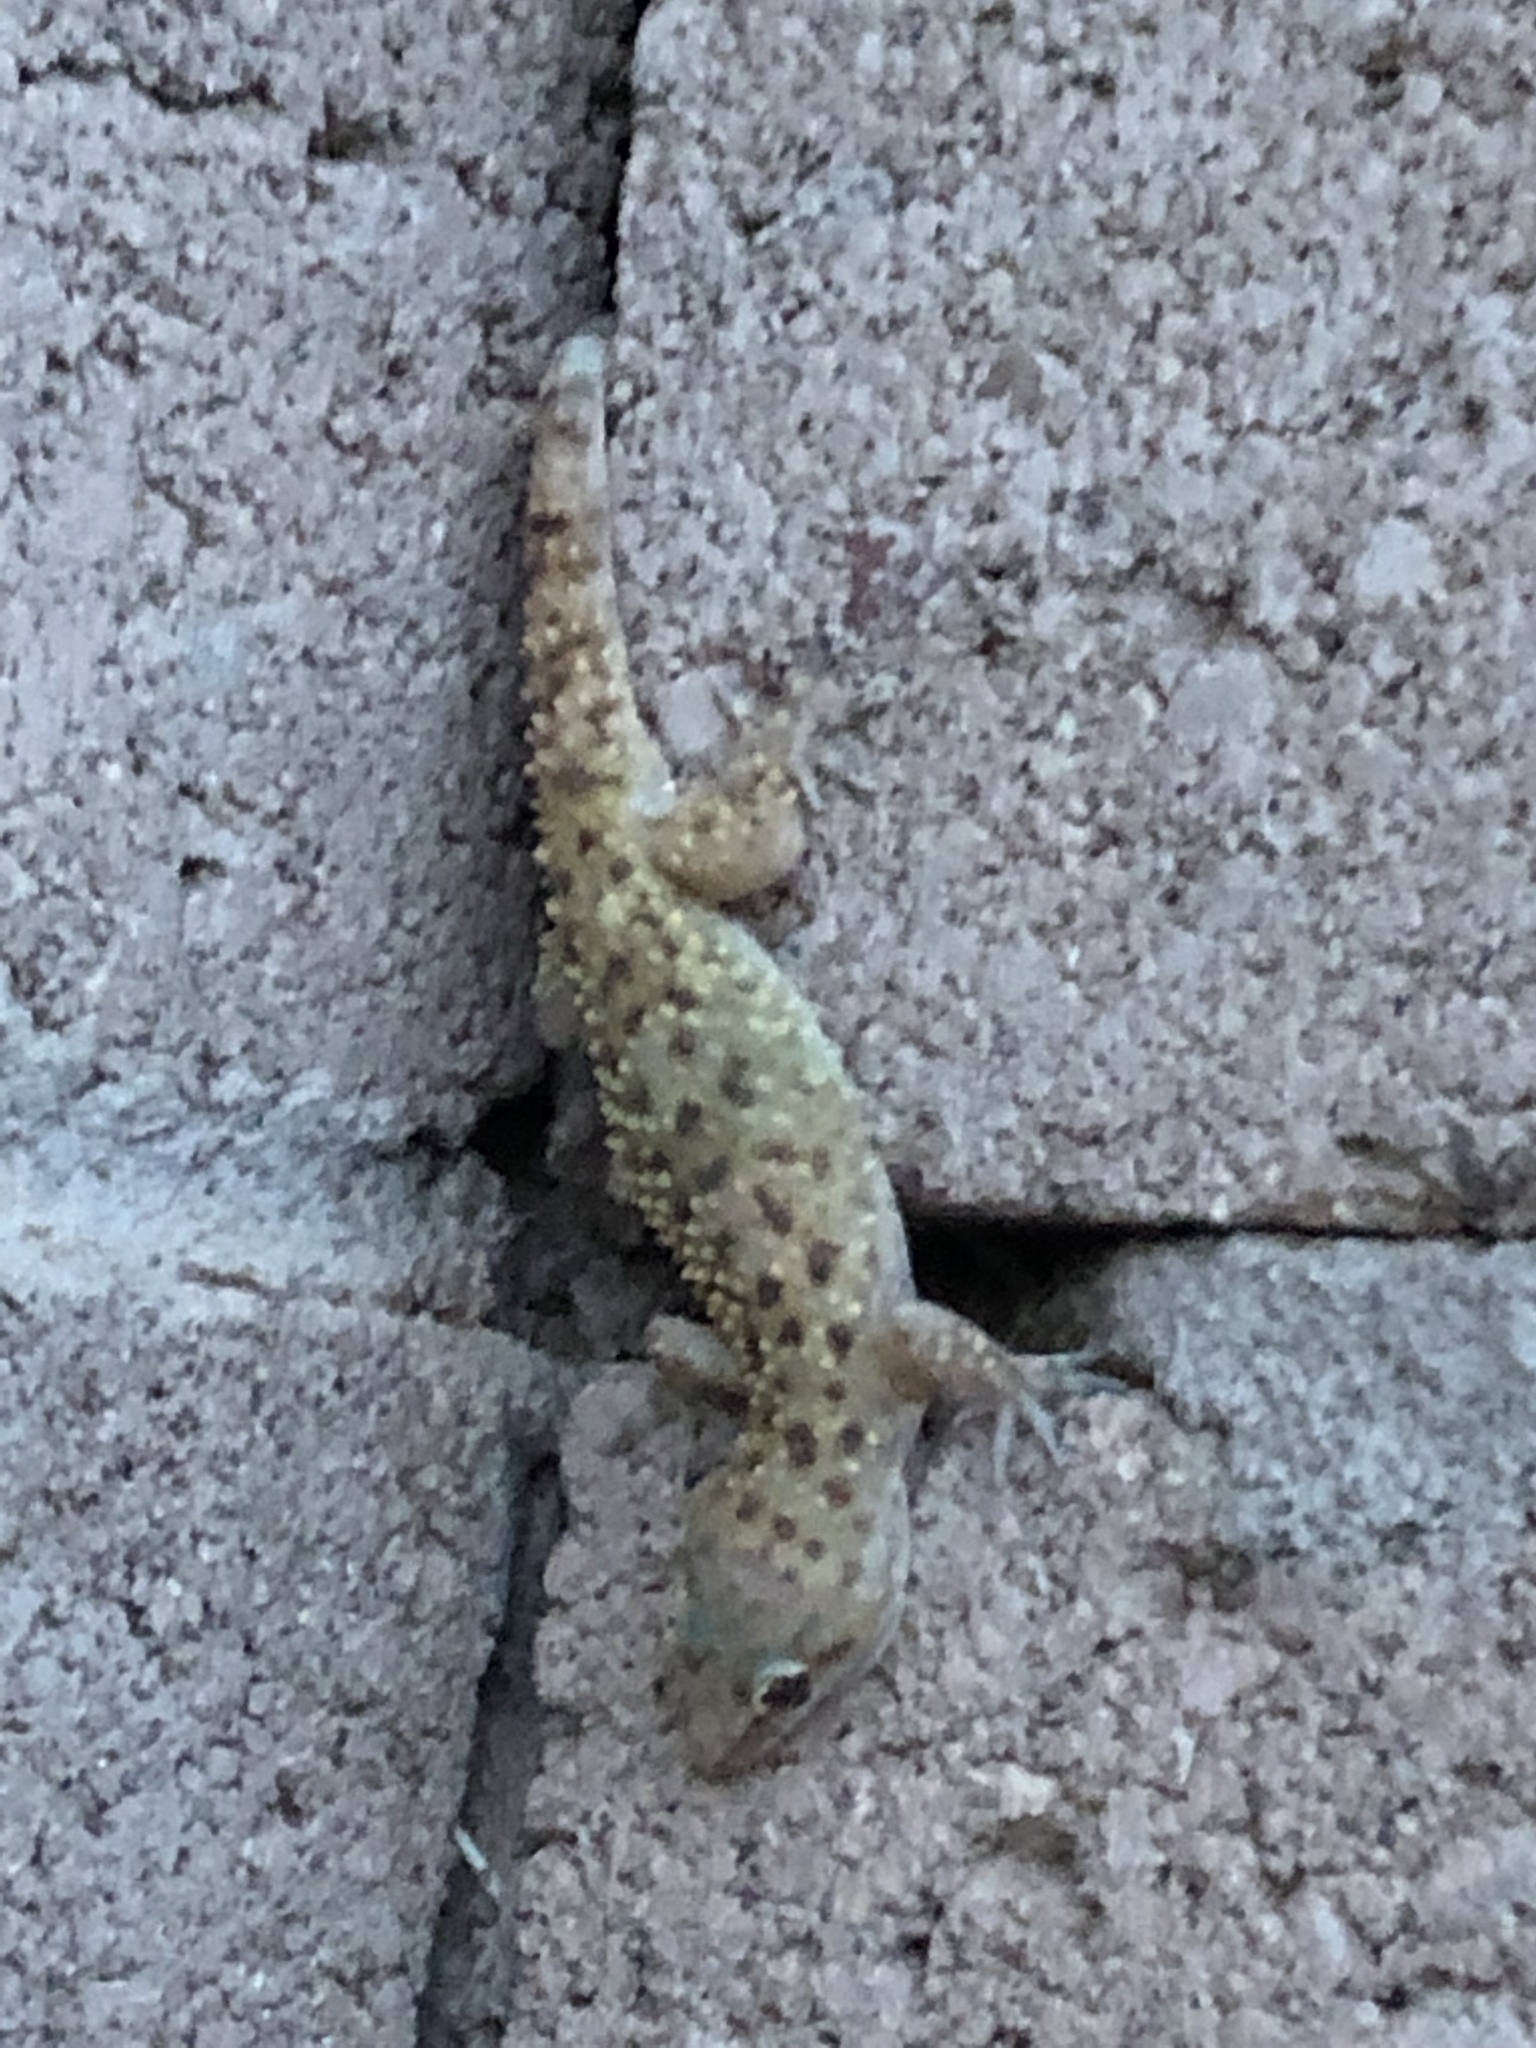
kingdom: Animalia
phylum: Chordata
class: Squamata
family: Gekkonidae
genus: Hemidactylus
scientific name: Hemidactylus turcicus
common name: Turkish gecko
